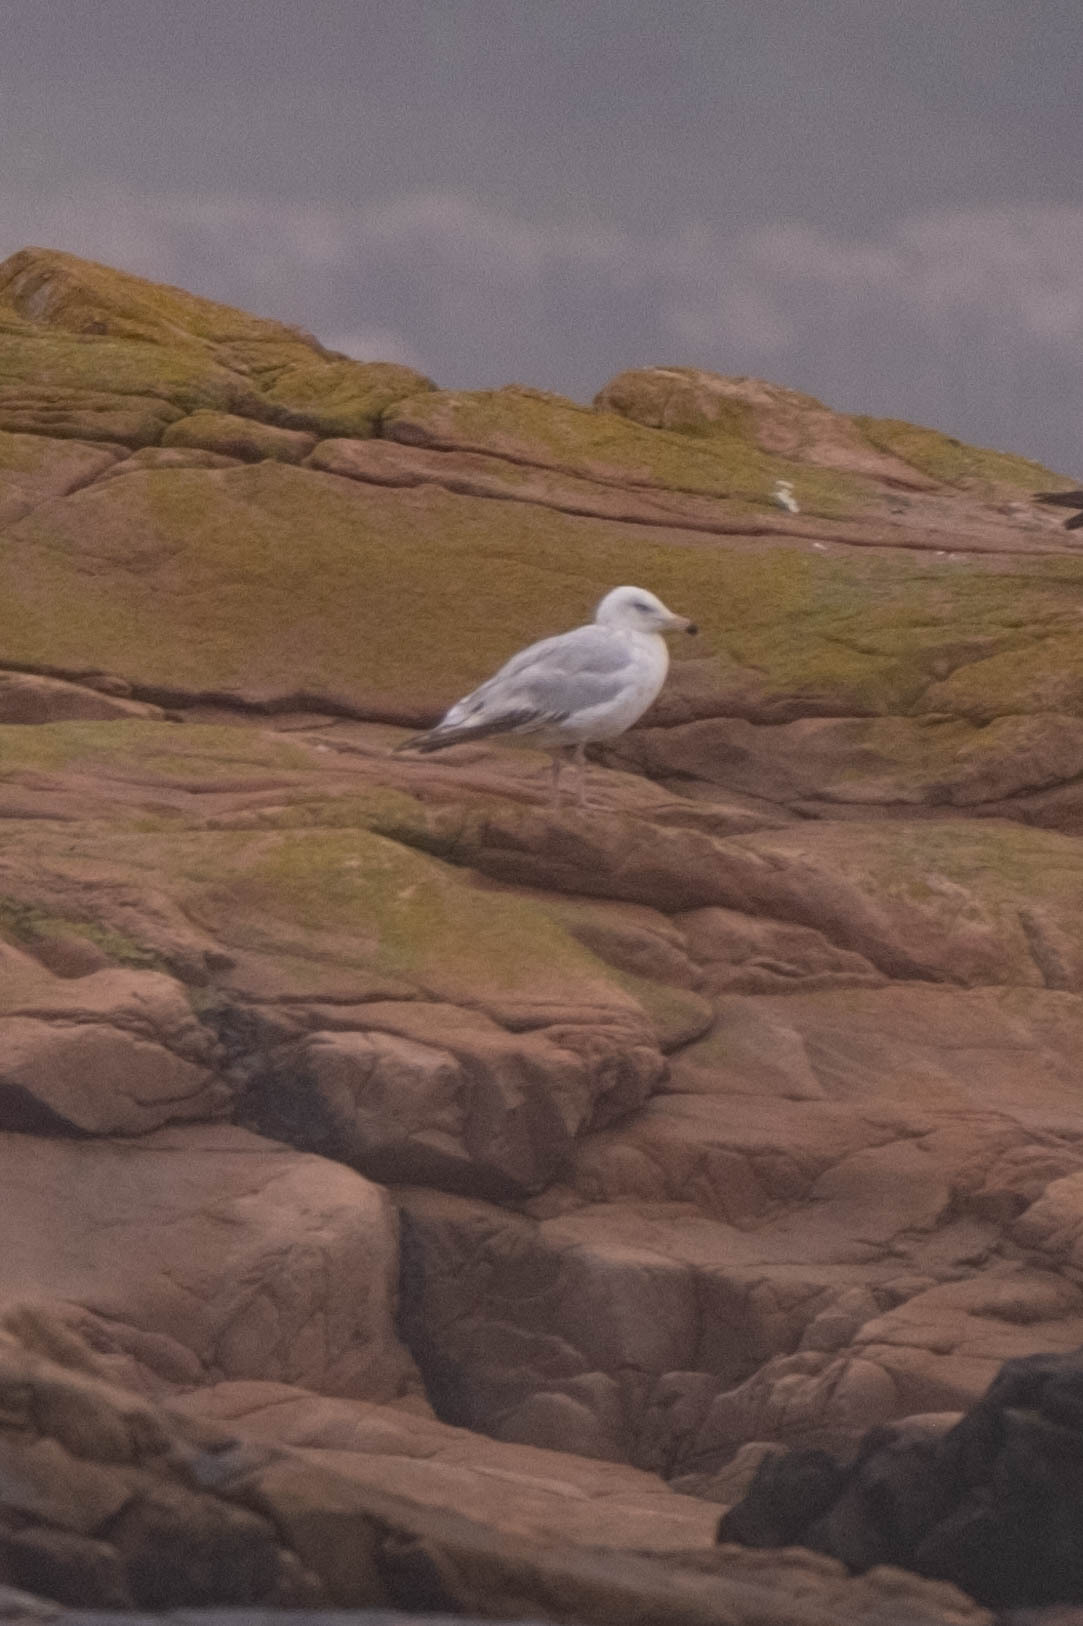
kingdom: Animalia
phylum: Chordata
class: Aves
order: Charadriiformes
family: Laridae
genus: Larus
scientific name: Larus argentatus
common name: Herring gull
